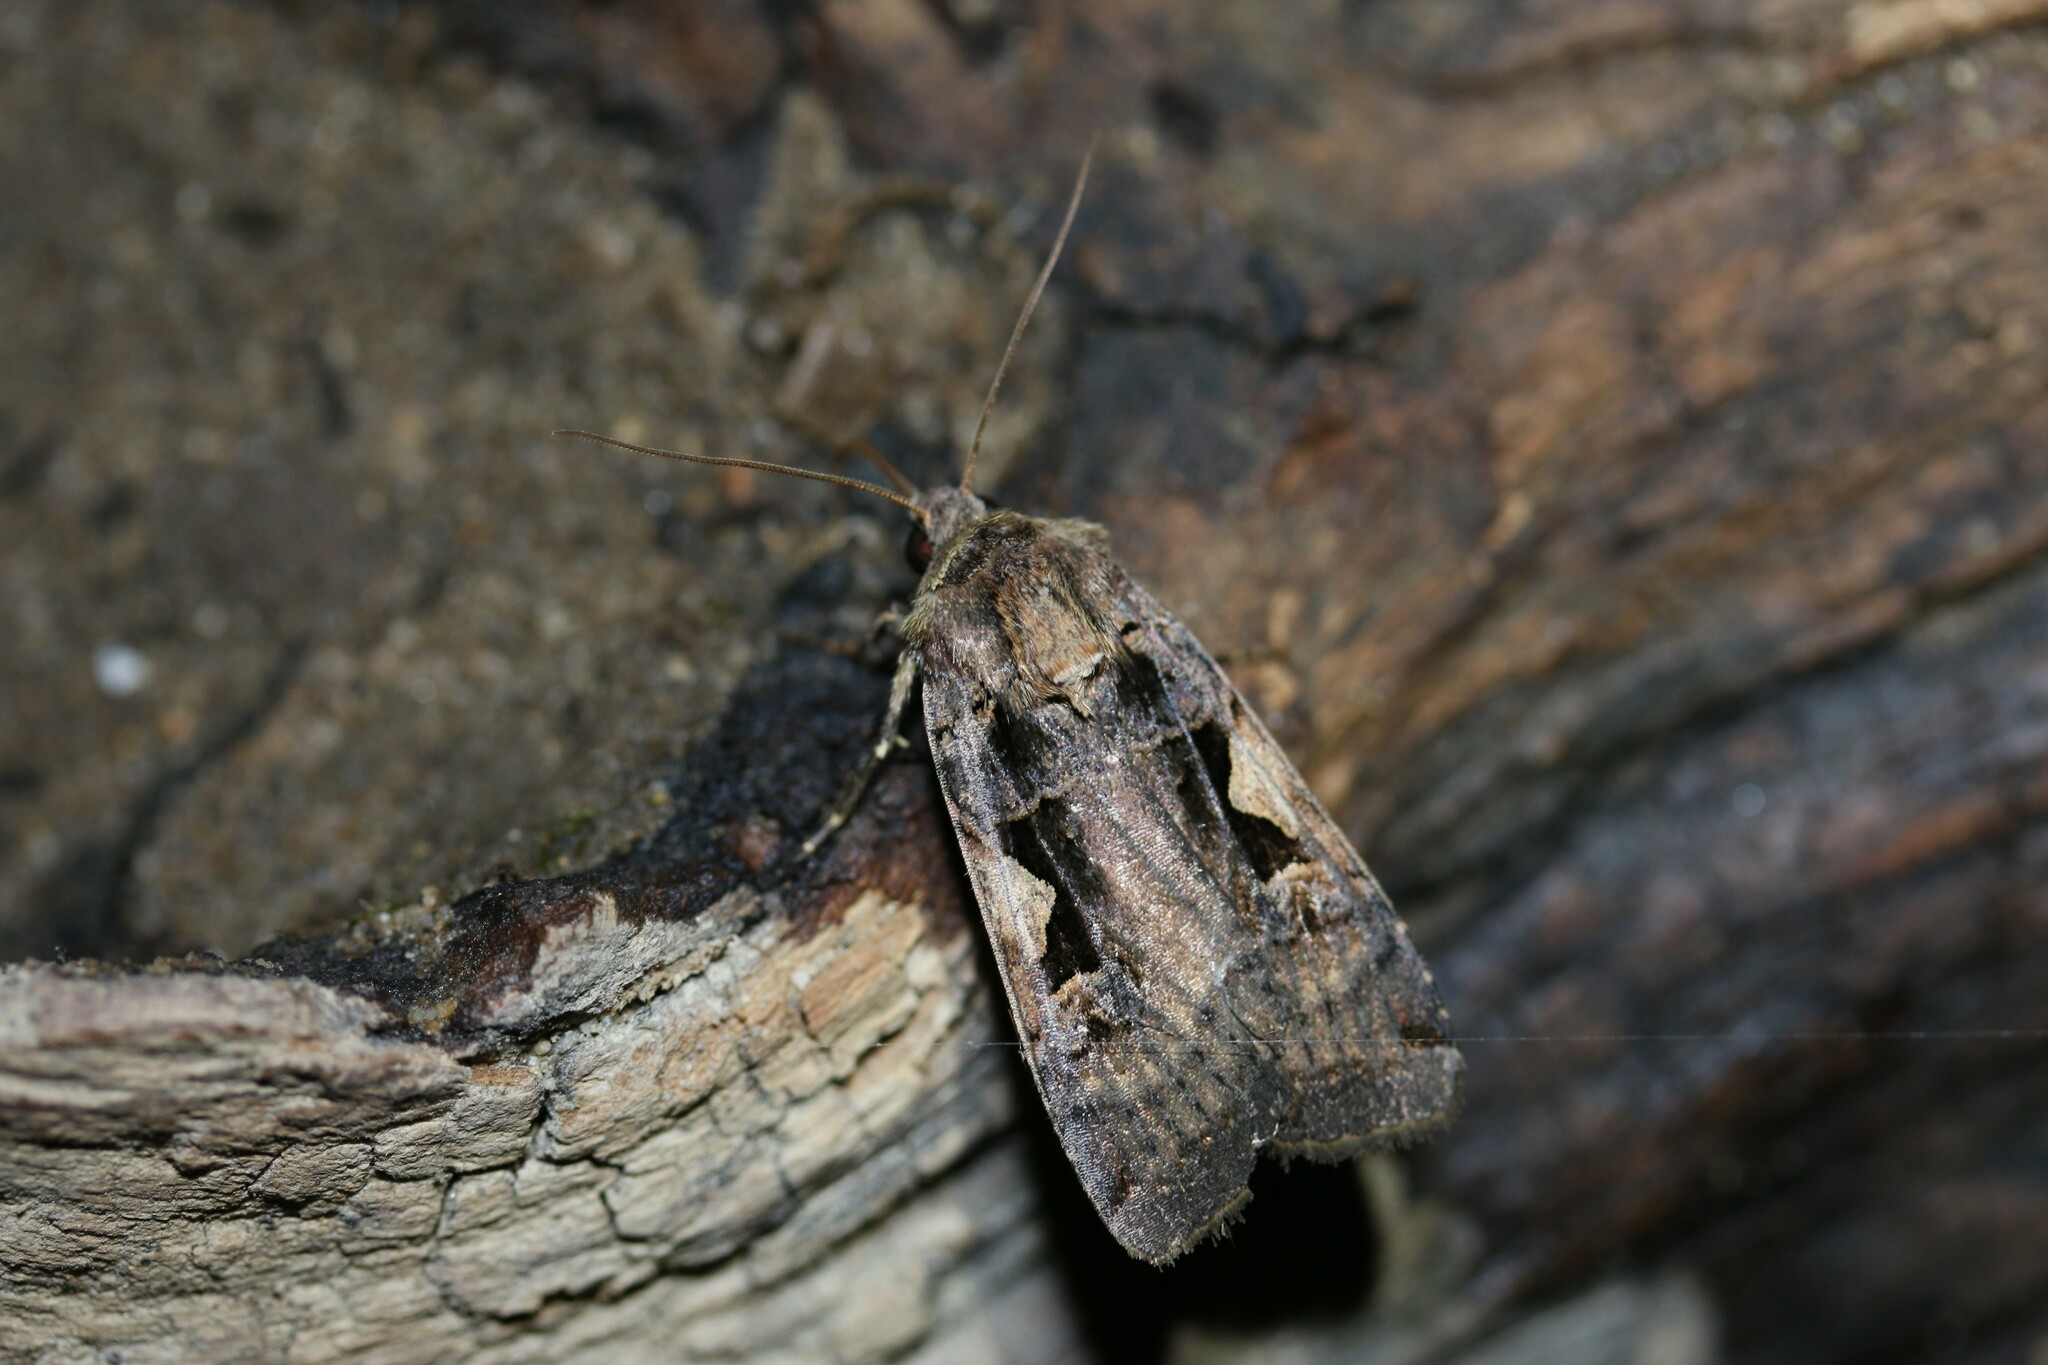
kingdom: Animalia
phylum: Arthropoda
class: Insecta
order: Lepidoptera
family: Noctuidae
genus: Xestia
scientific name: Xestia c-nigrum
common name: Setaceous hebrew character
